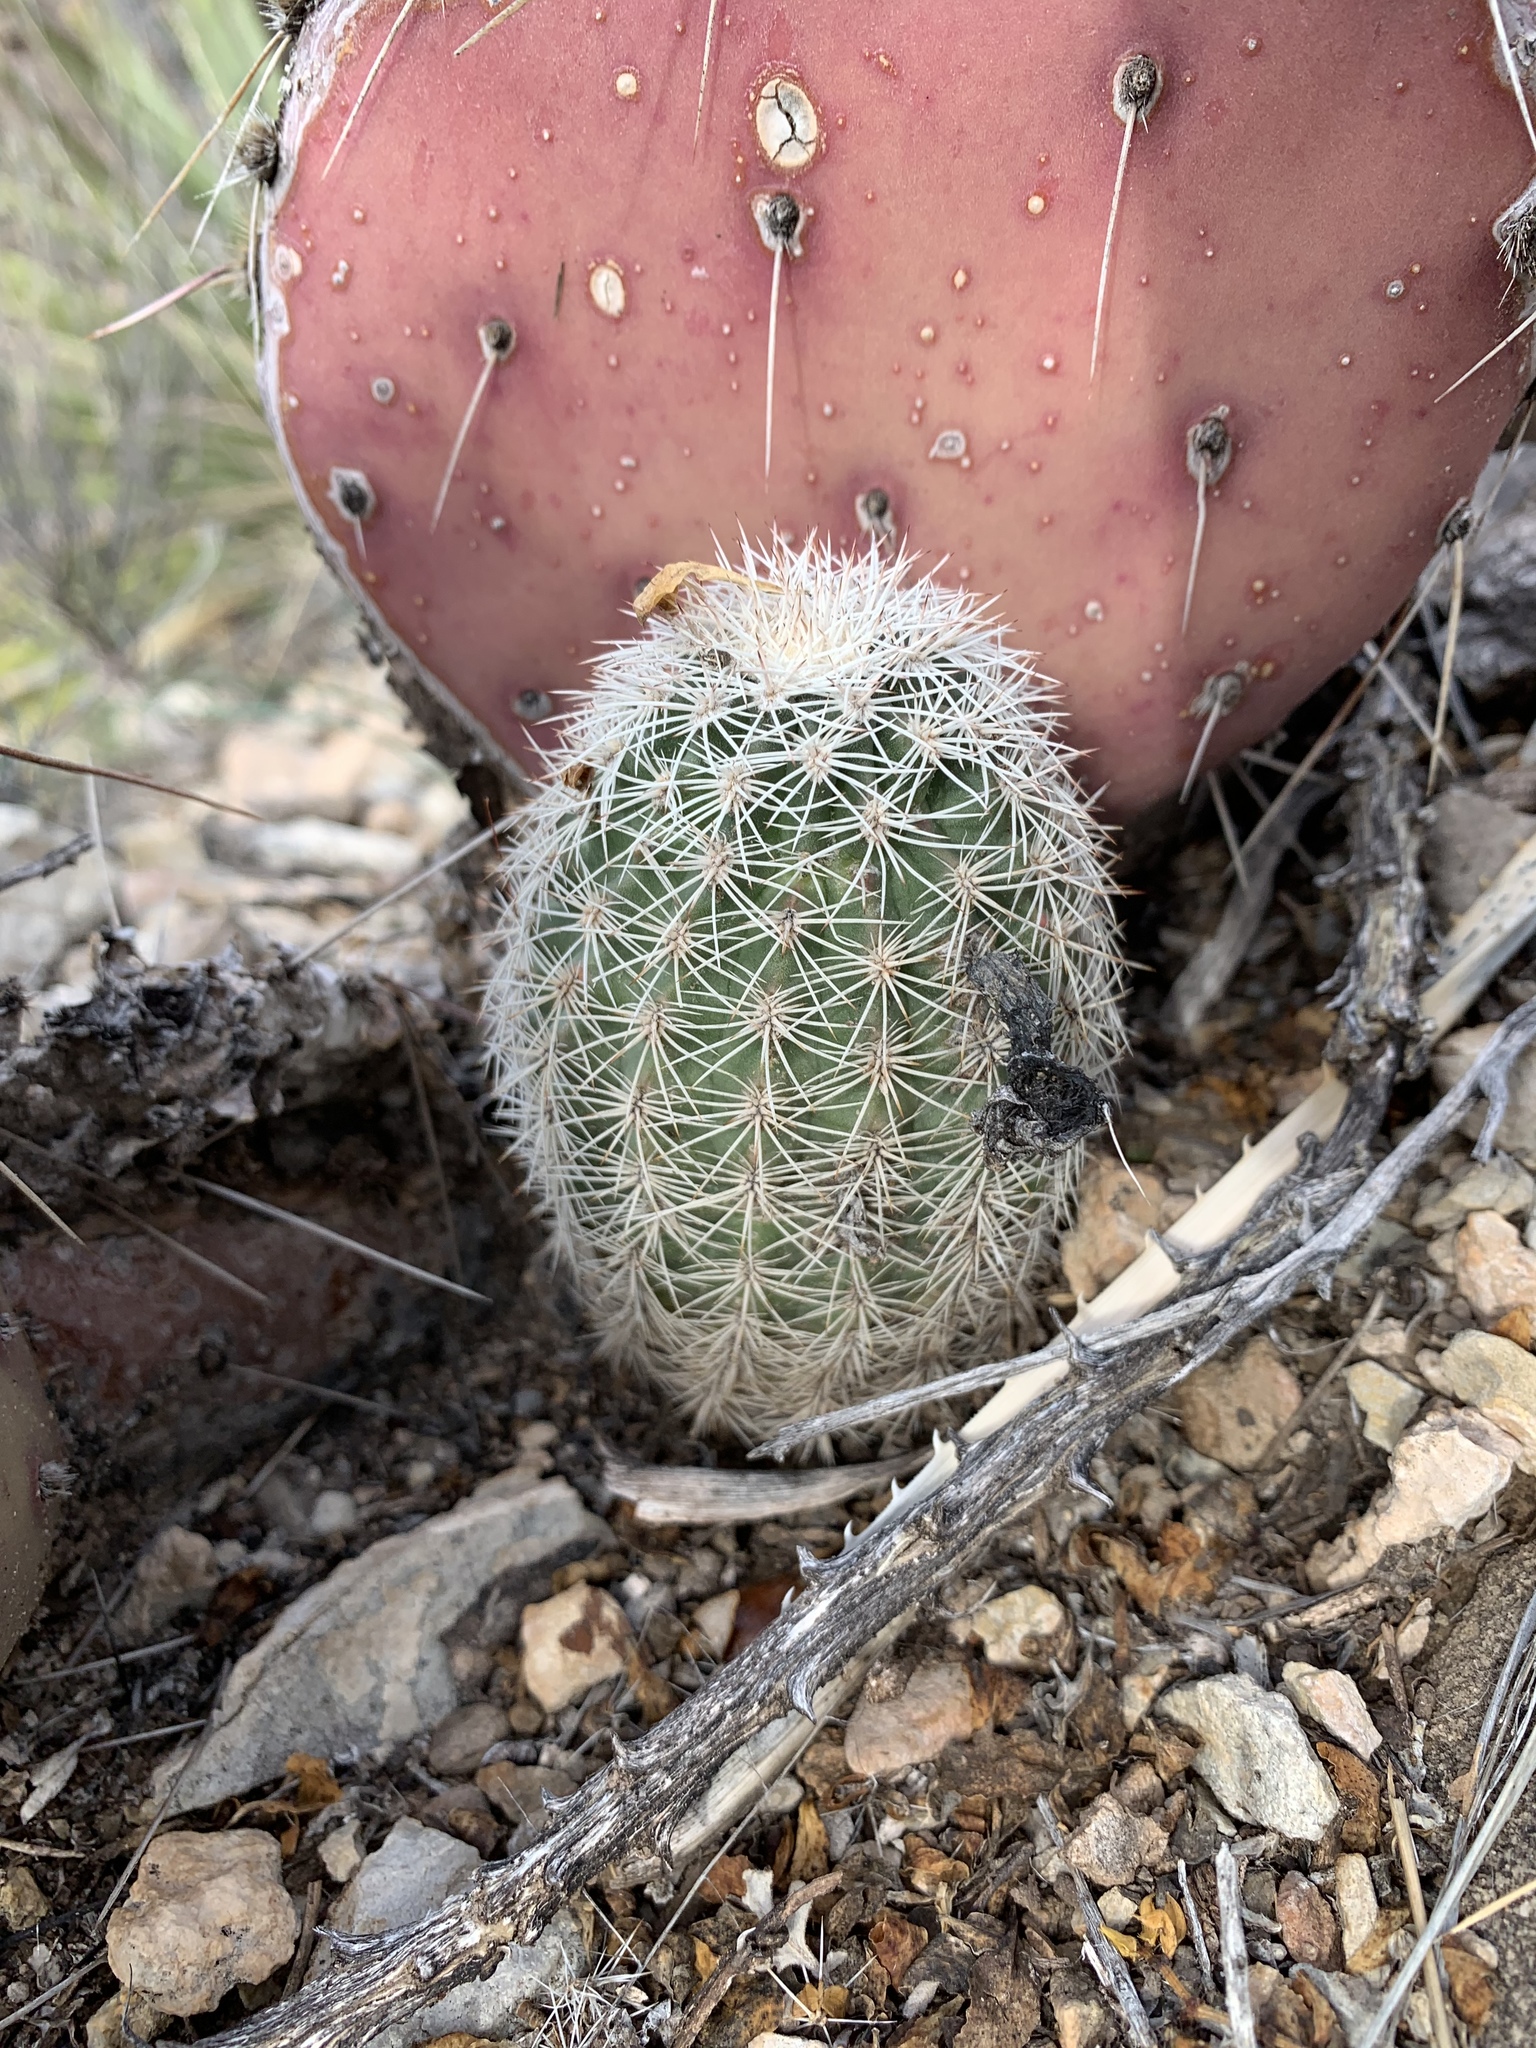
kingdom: Plantae
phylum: Tracheophyta
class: Magnoliopsida
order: Caryophyllales
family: Cactaceae
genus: Echinocereus
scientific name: Echinocereus dasyacanthus
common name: Spiny hedgehog cactus
